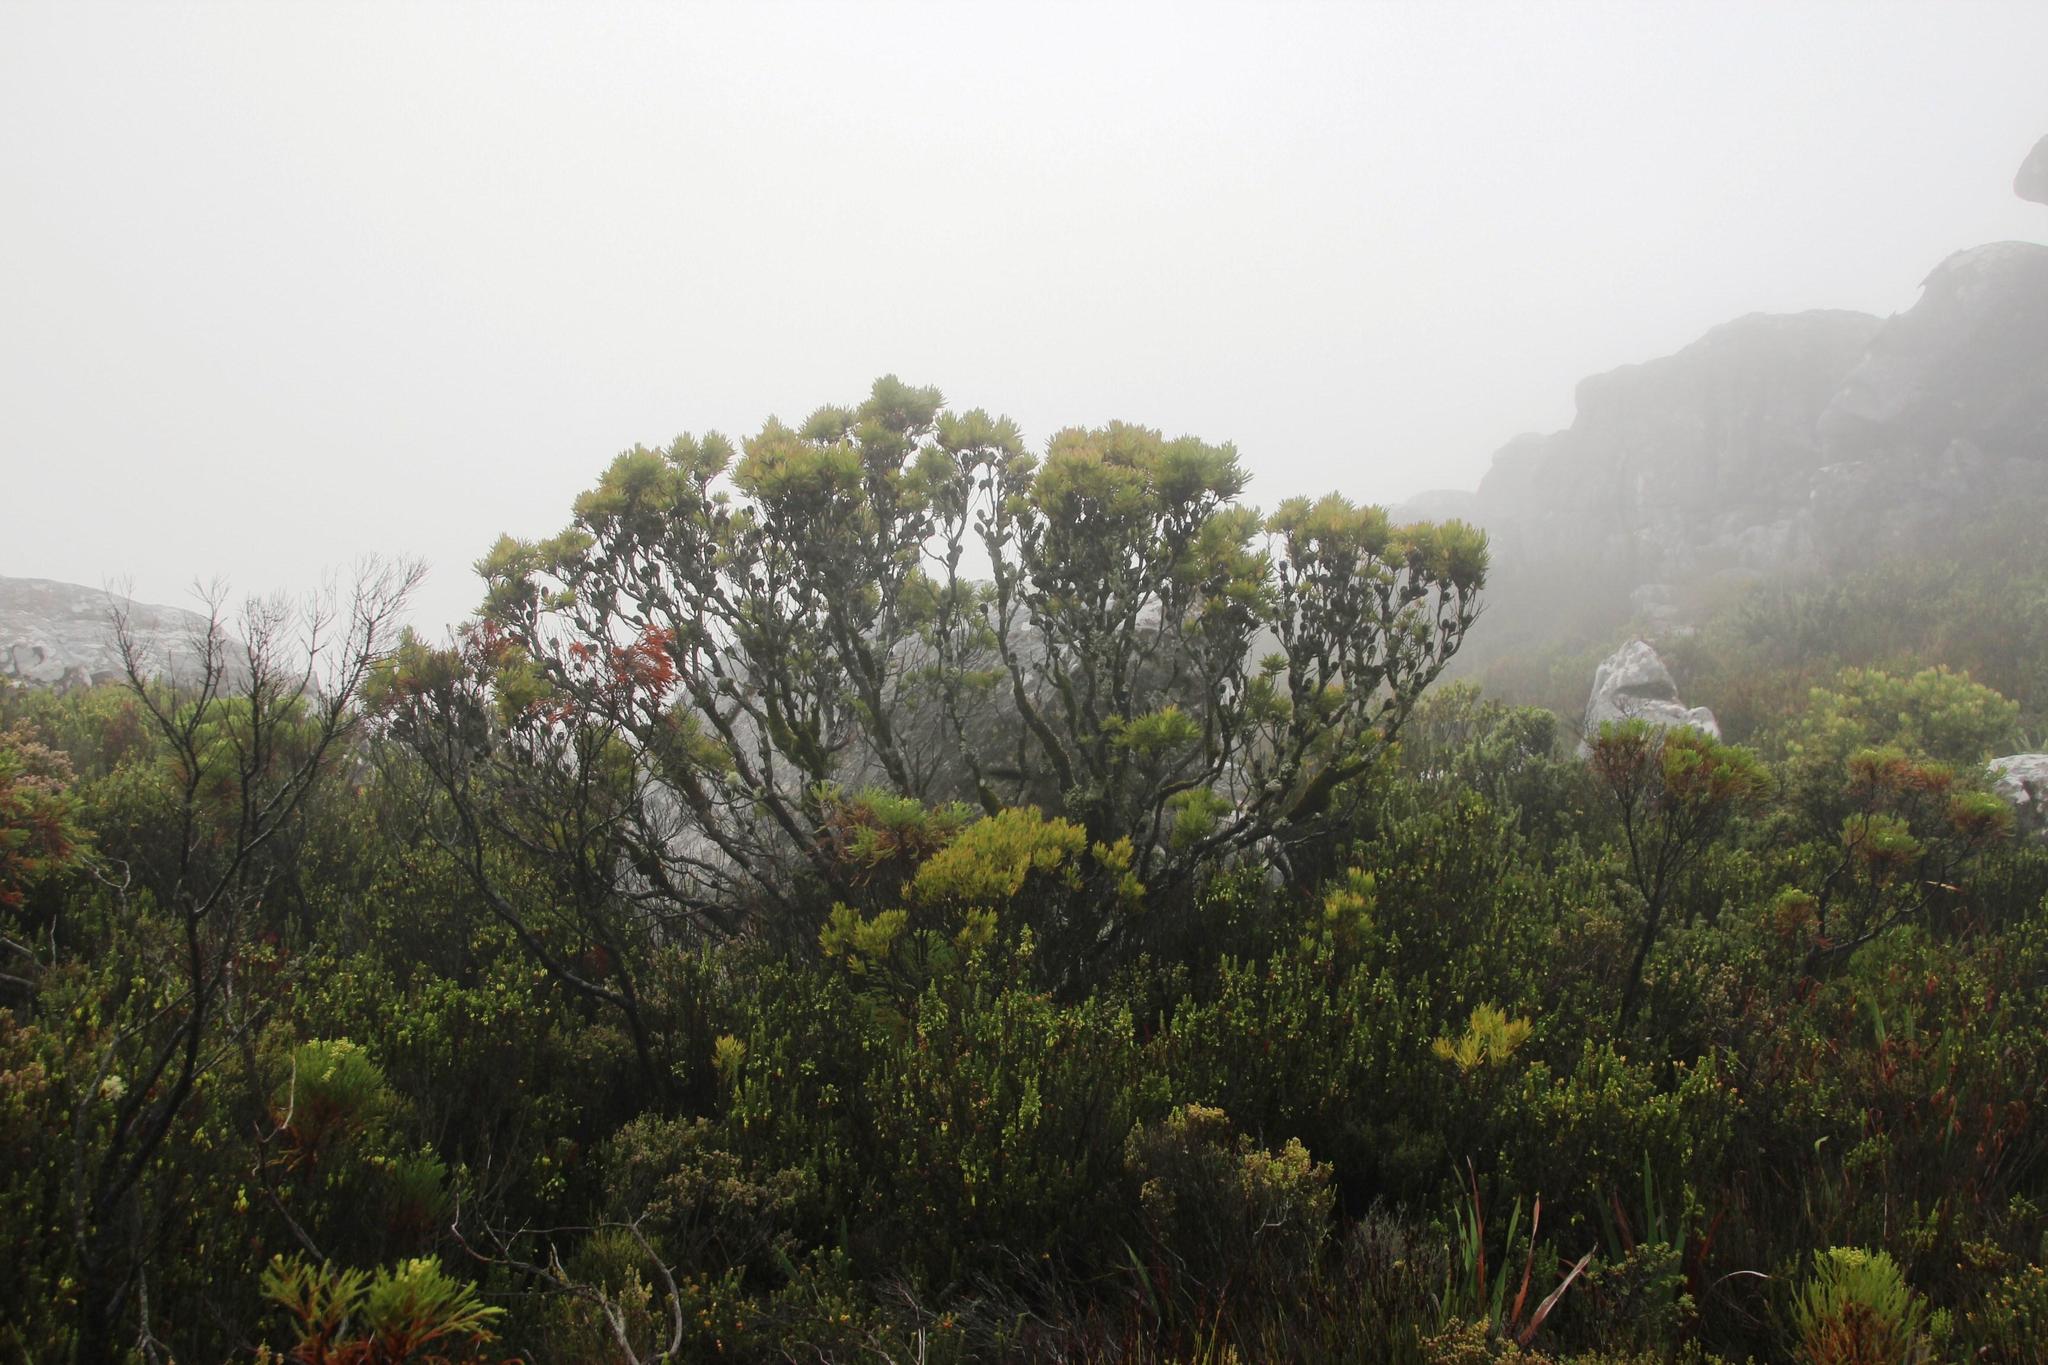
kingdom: Plantae
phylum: Tracheophyta
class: Magnoliopsida
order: Proteales
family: Proteaceae
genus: Leucadendron
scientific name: Leucadendron strobilinum
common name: Mountain rose
